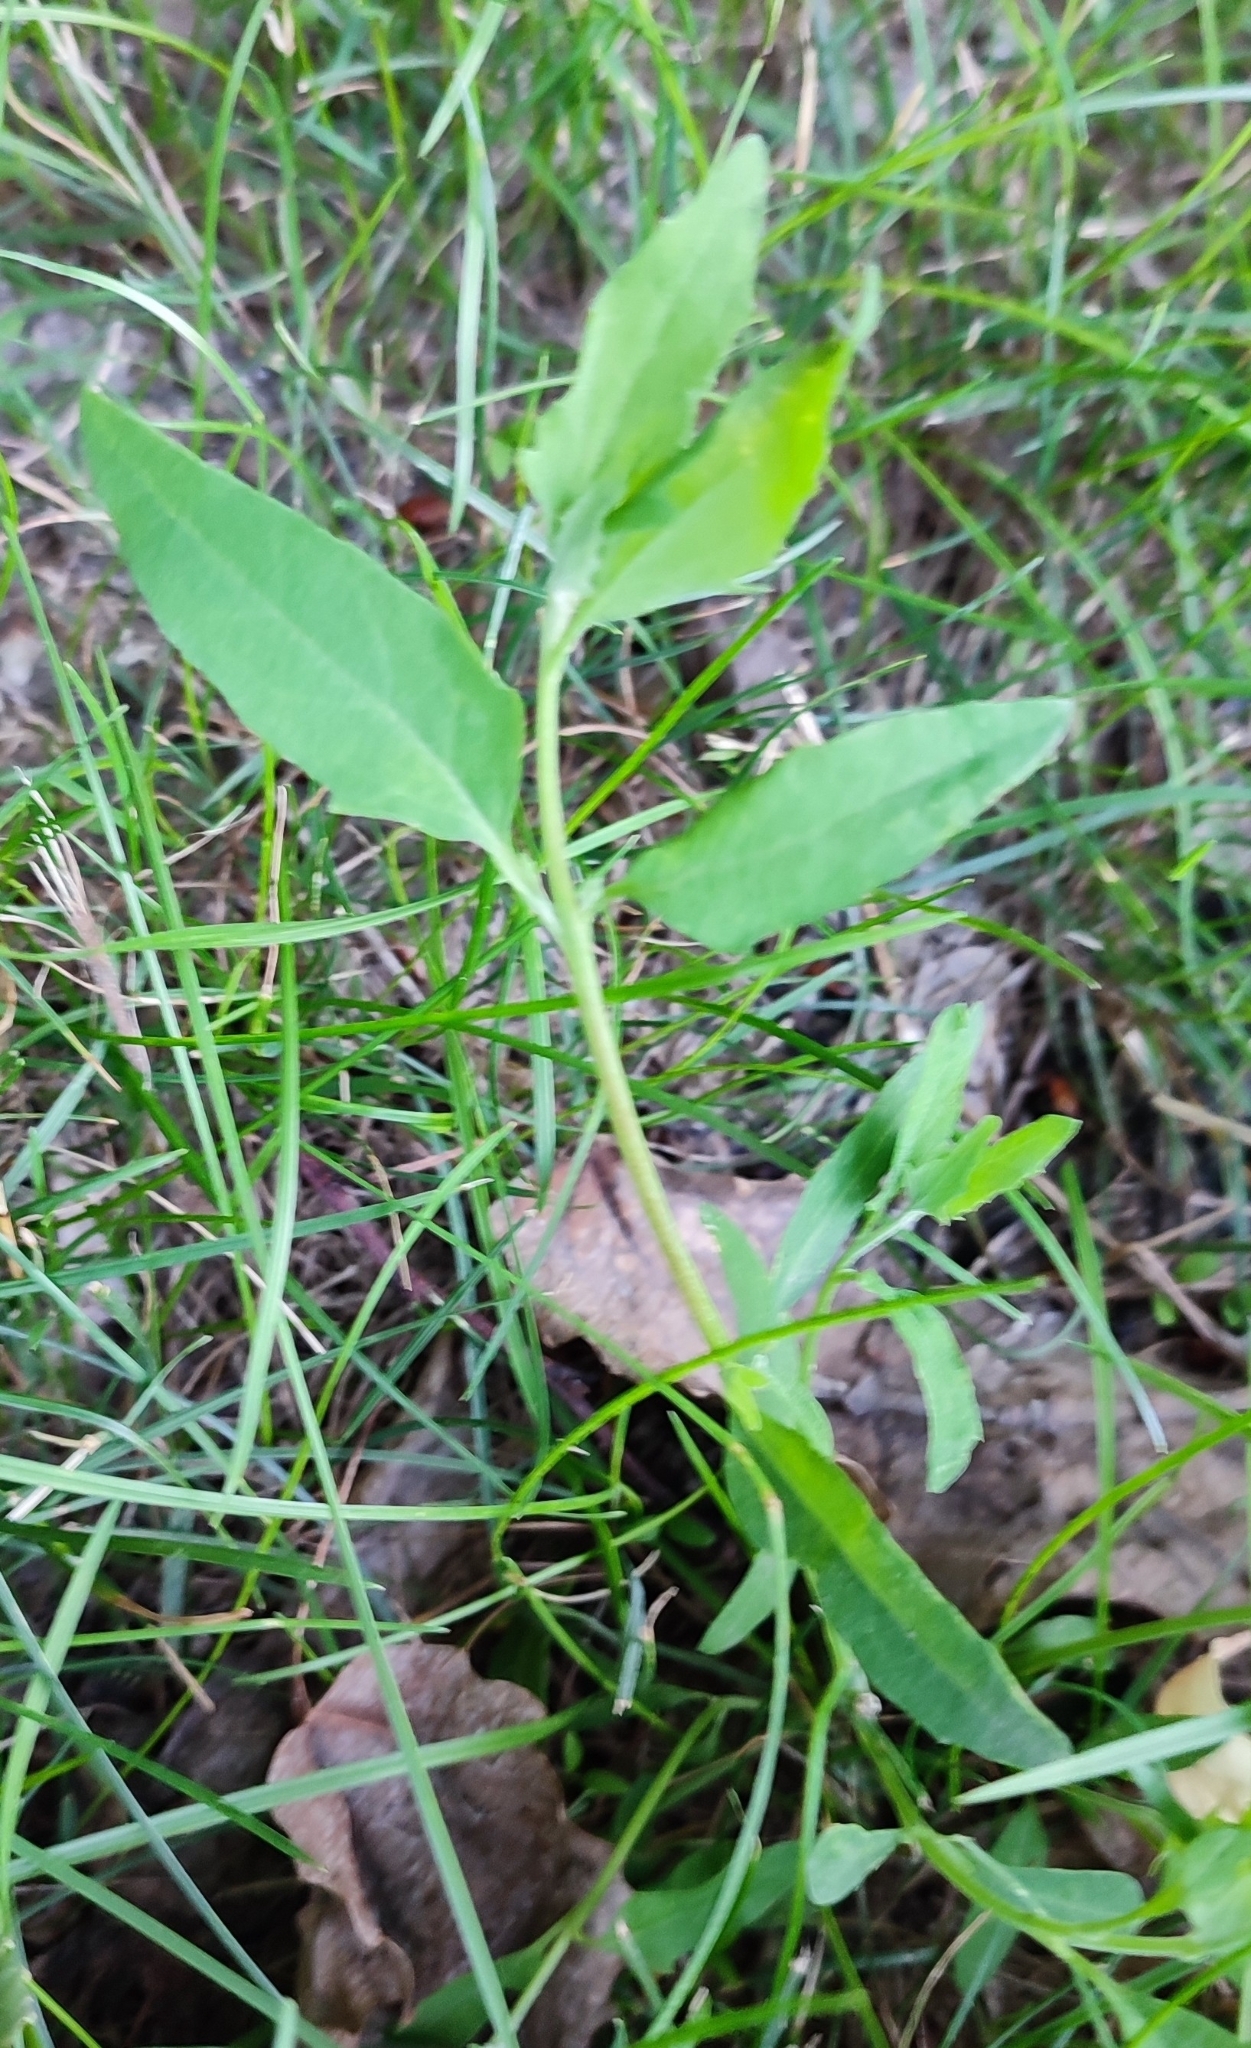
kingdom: Plantae
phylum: Tracheophyta
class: Magnoliopsida
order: Caryophyllales
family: Amaranthaceae
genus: Atriplex
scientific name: Atriplex patula
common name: Common orache
